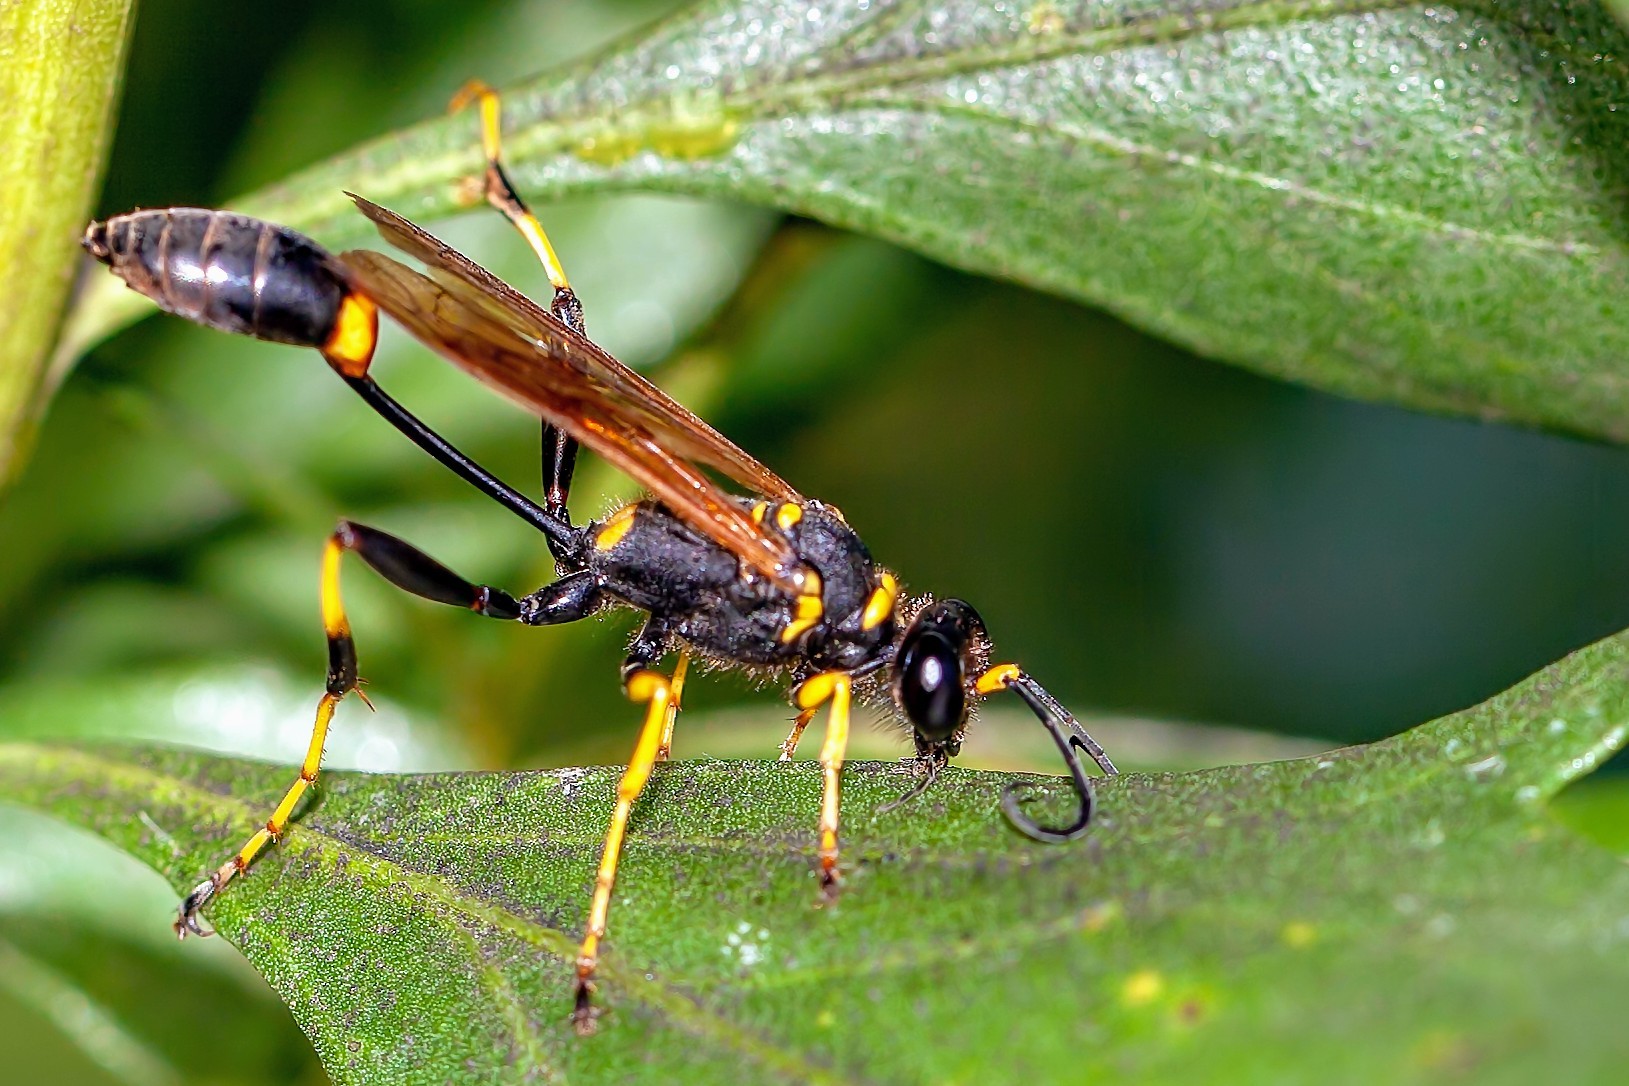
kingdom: Animalia
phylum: Arthropoda
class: Insecta
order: Hymenoptera
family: Sphecidae
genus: Sceliphron
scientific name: Sceliphron caementarium
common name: Mud dauber
